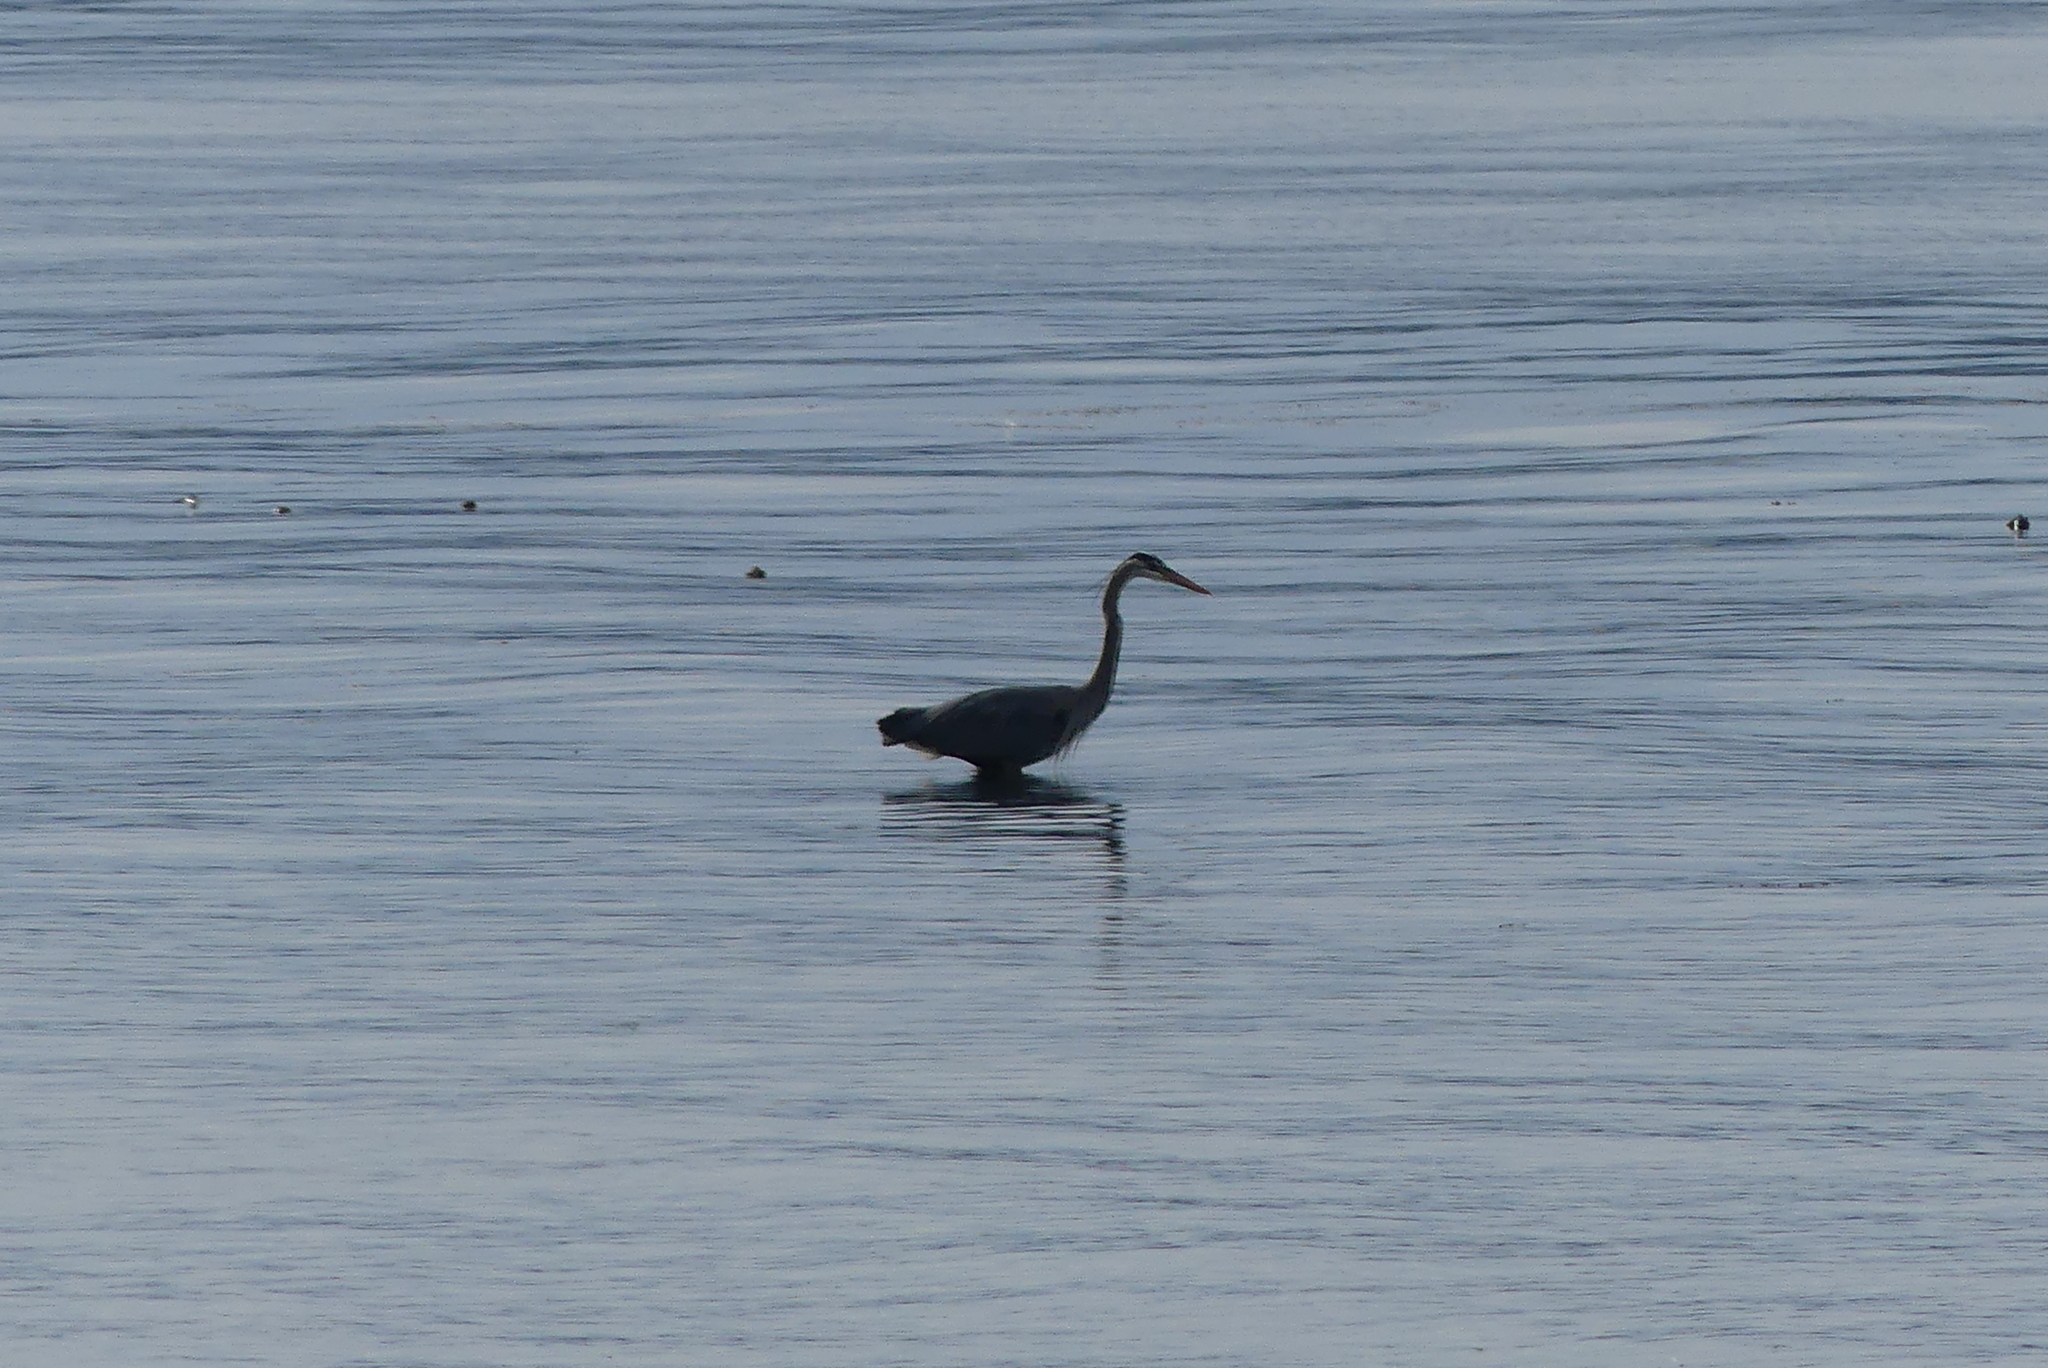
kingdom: Animalia
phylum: Chordata
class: Aves
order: Pelecaniformes
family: Ardeidae
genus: Ardea
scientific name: Ardea herodias
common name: Great blue heron
